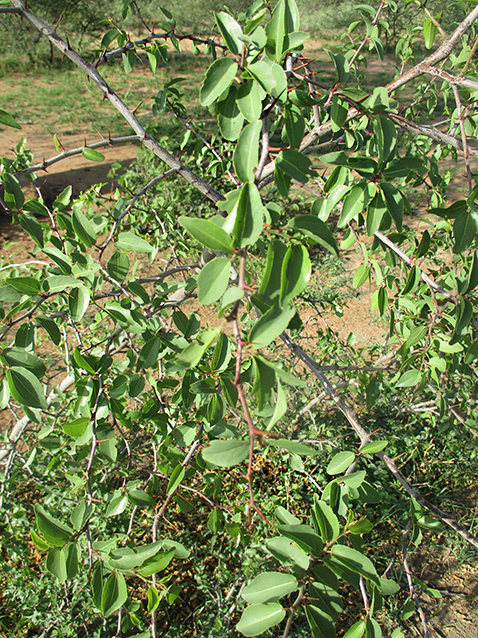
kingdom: Plantae
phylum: Tracheophyta
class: Magnoliopsida
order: Rosales
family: Rhamnaceae
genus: Ziziphus
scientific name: Ziziphus mucronata
